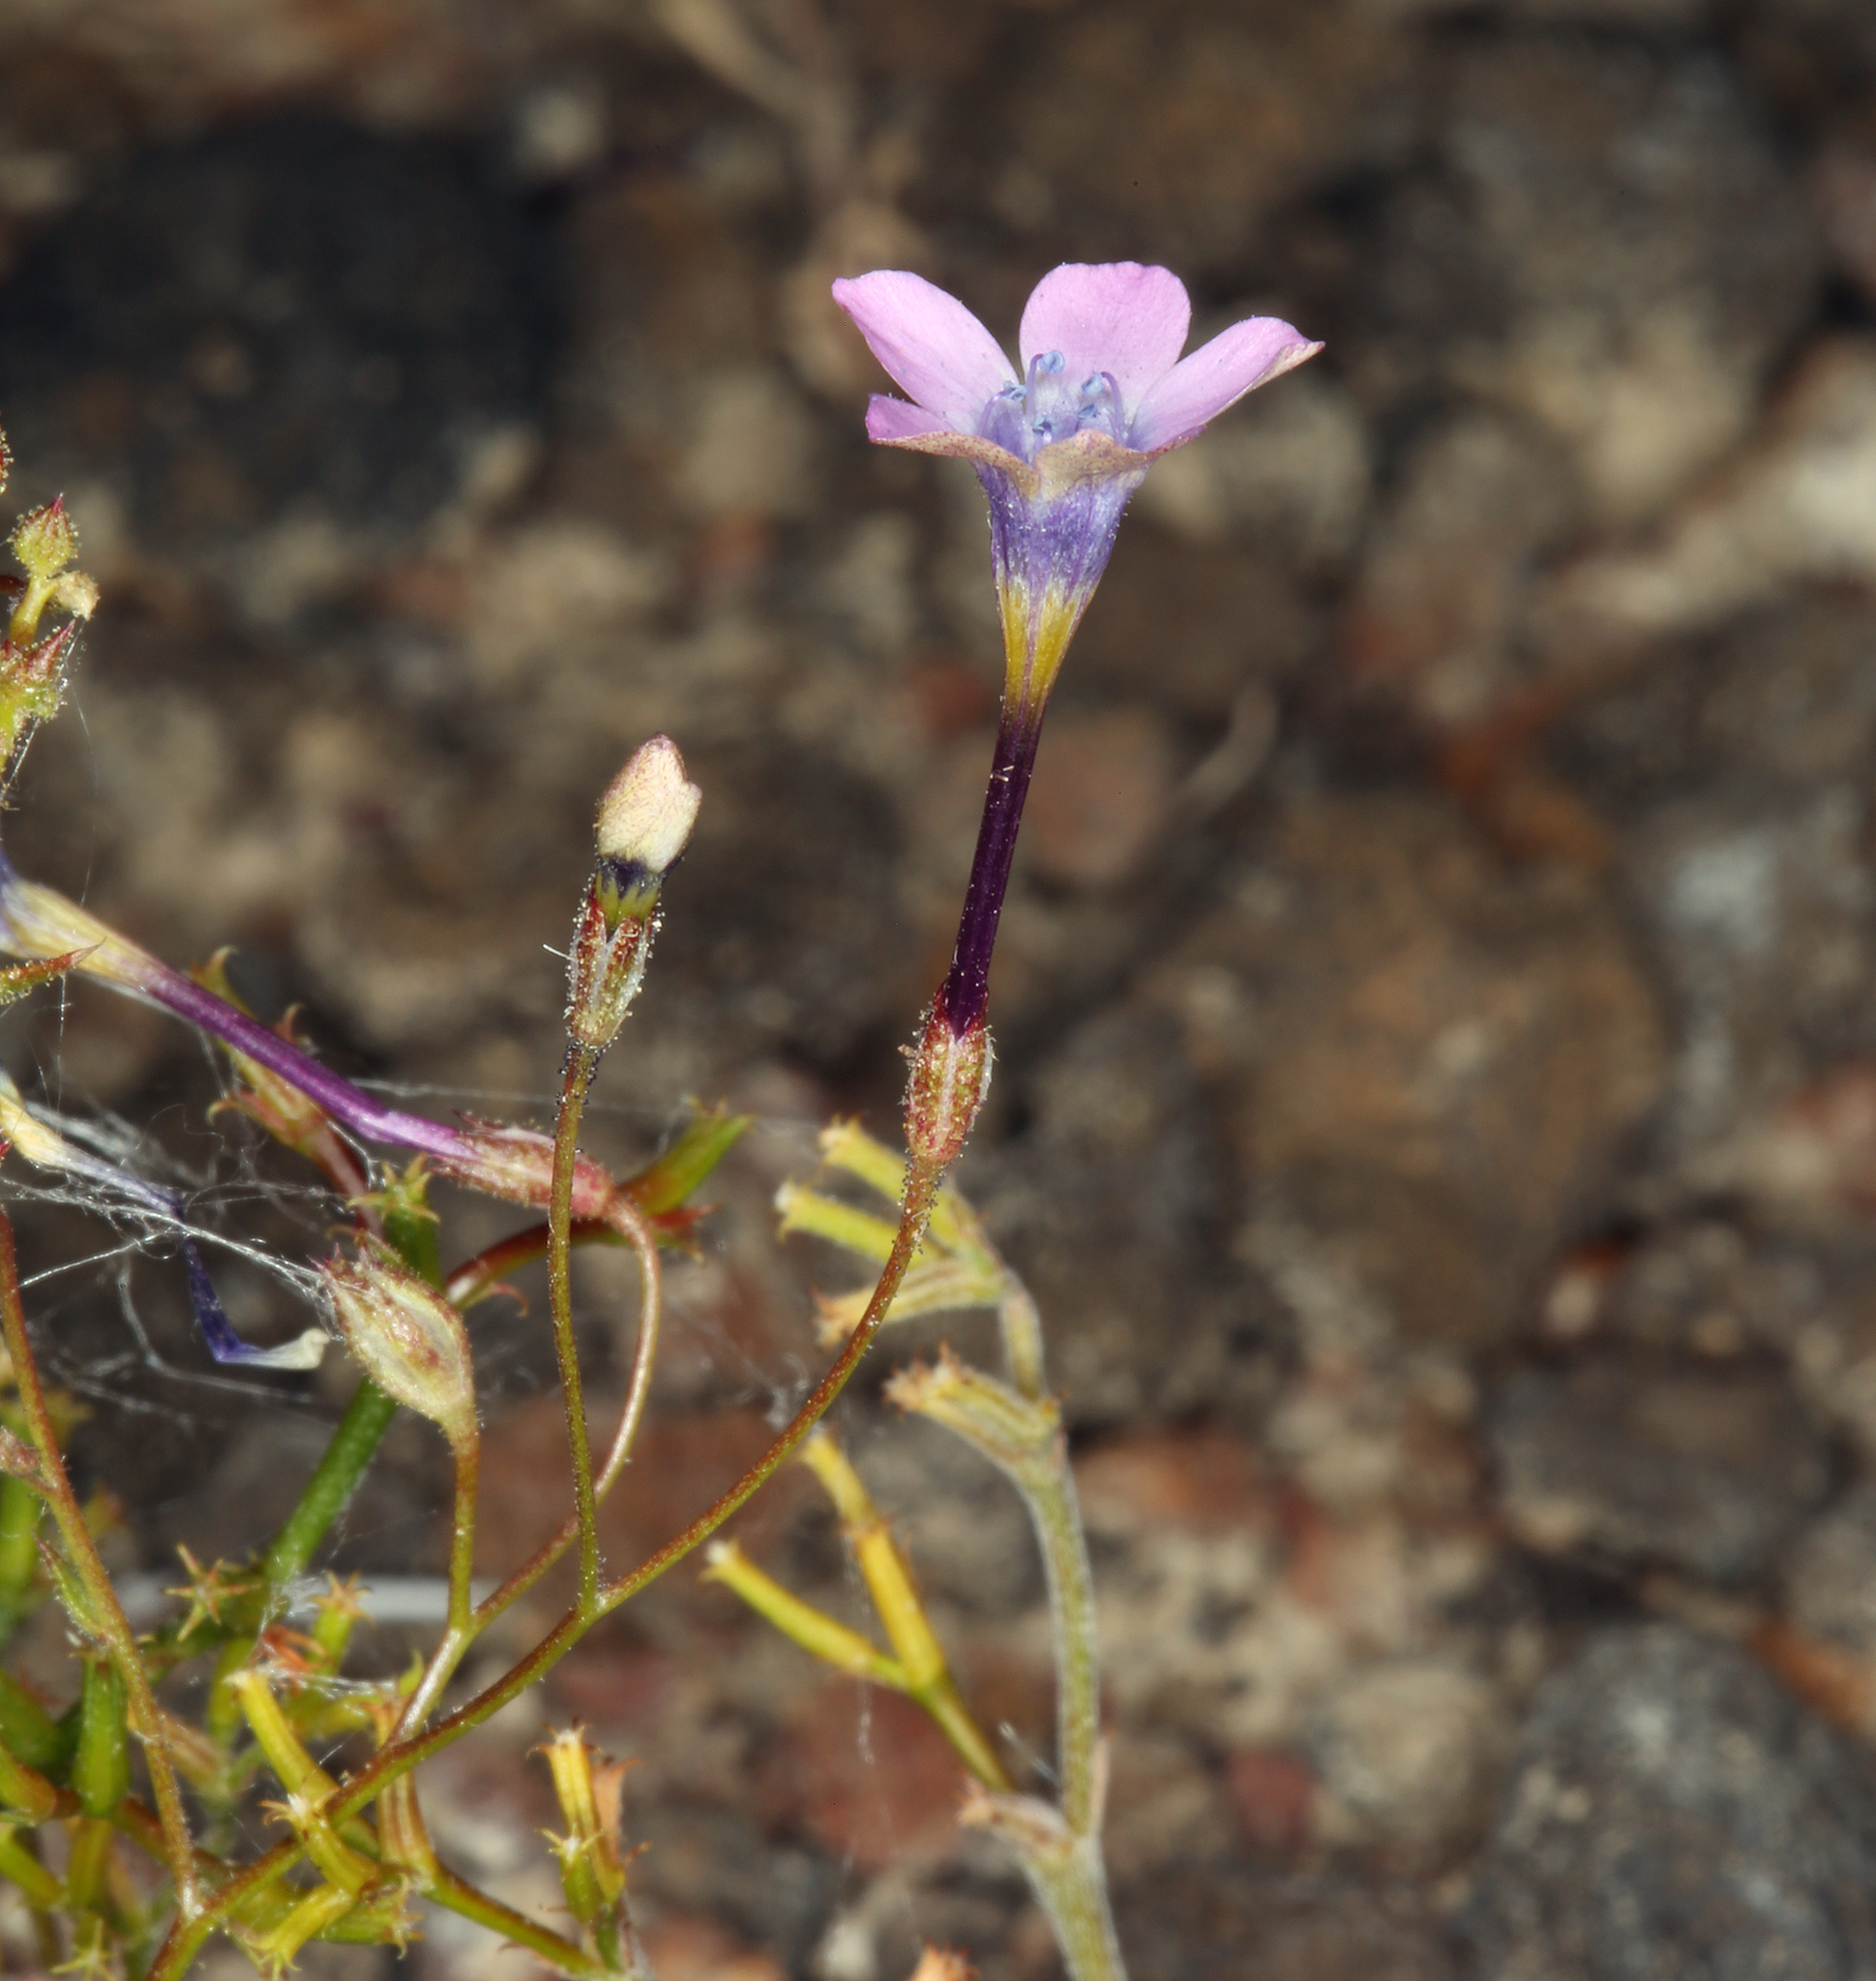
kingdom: Plantae
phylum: Tracheophyta
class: Magnoliopsida
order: Ericales
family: Polemoniaceae
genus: Gilia
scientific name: Gilia cana
